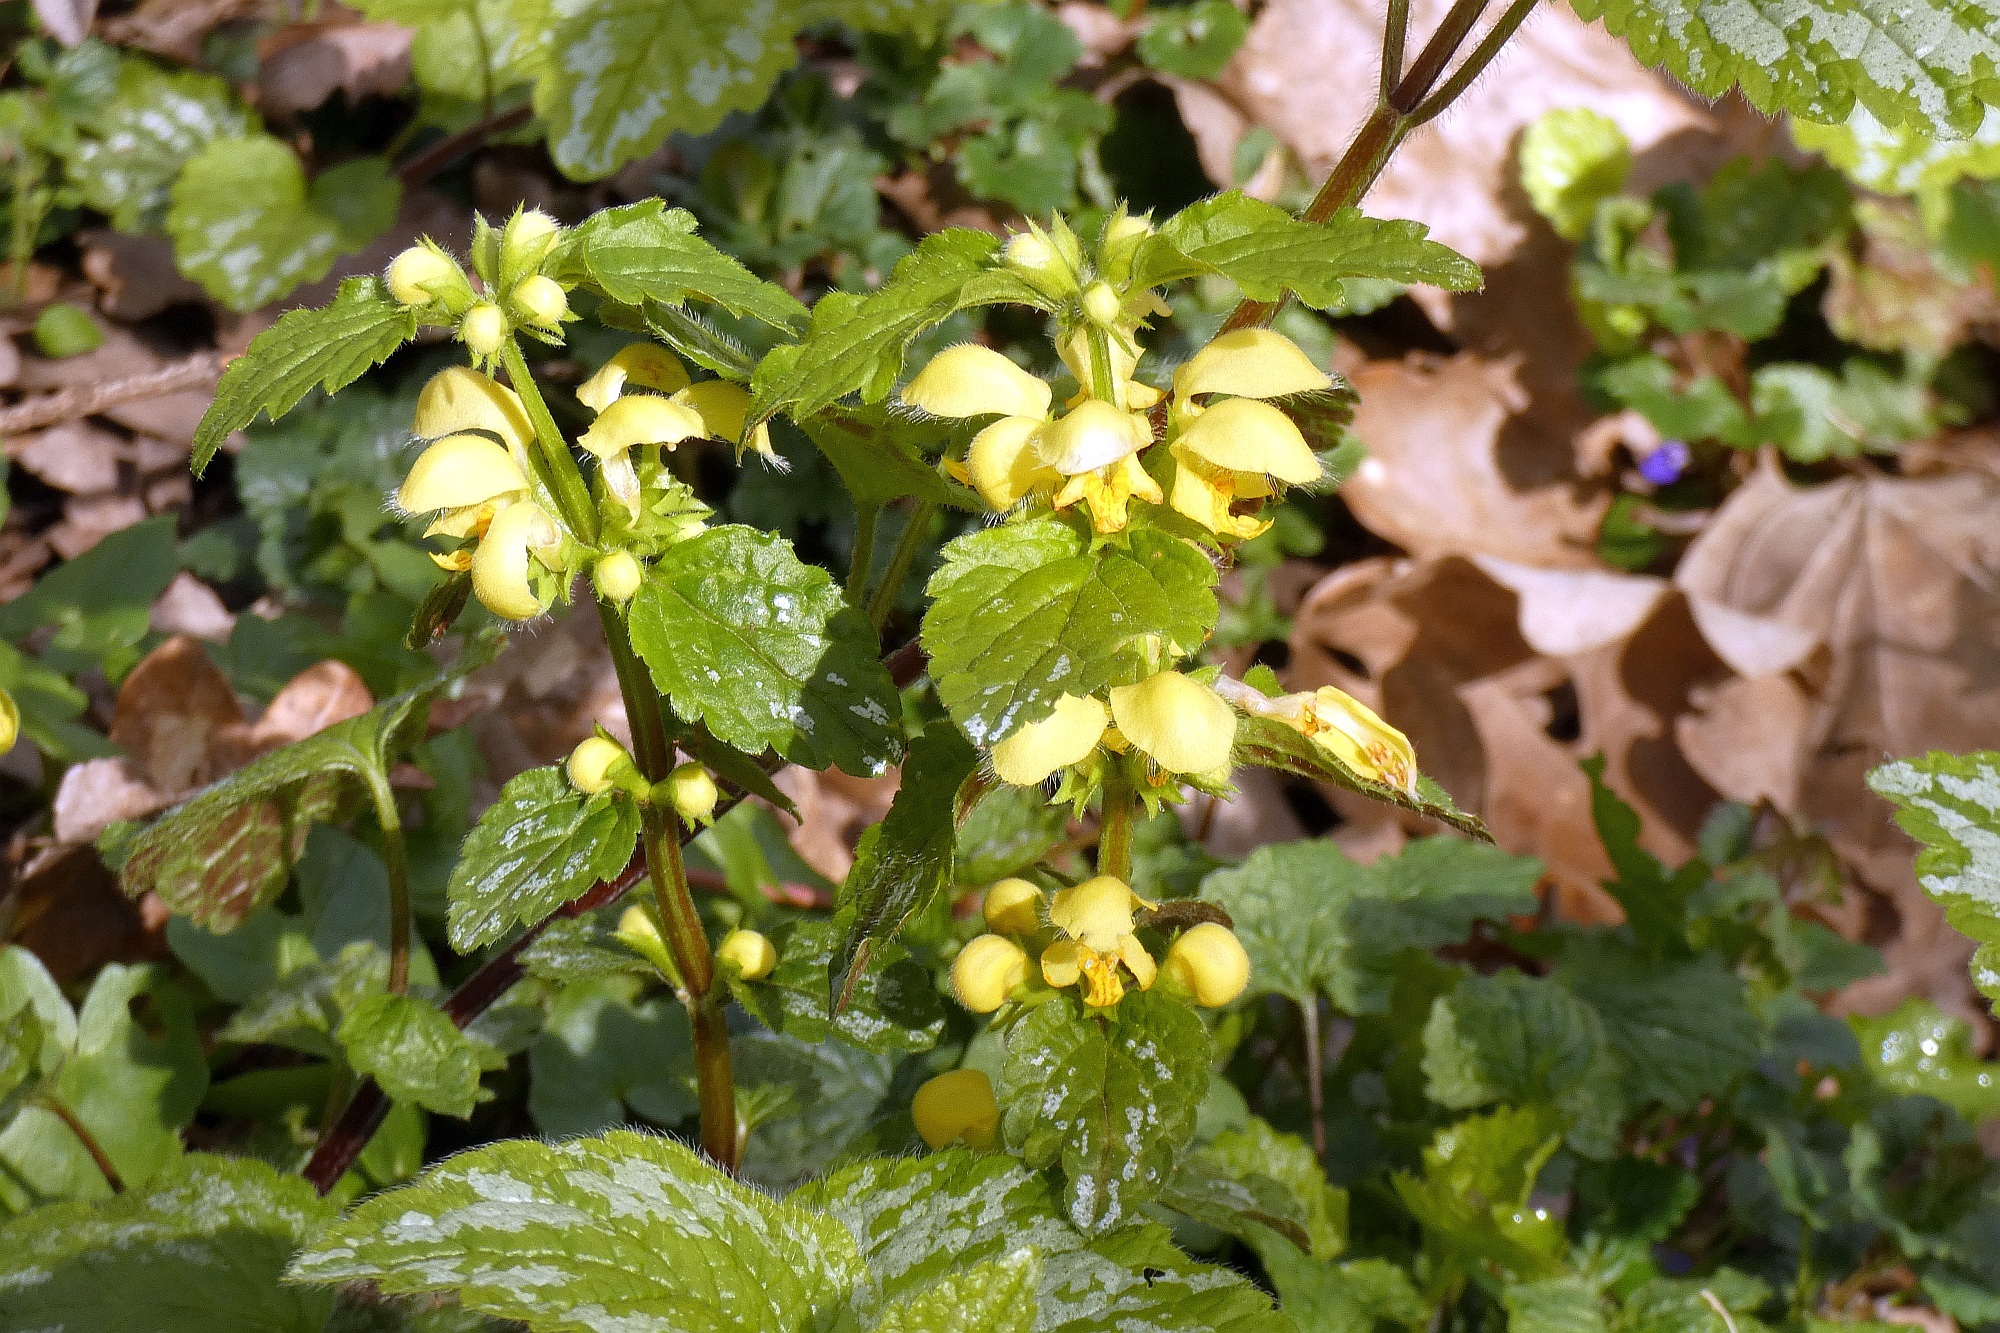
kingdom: Plantae
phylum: Tracheophyta
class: Magnoliopsida
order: Lamiales
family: Lamiaceae
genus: Lamium
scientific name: Lamium galeobdolon
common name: Yellow archangel
